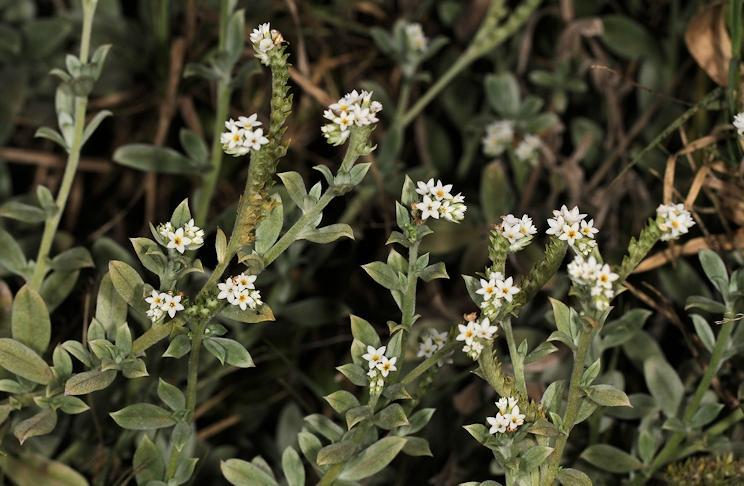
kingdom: Plantae
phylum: Tracheophyta
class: Magnoliopsida
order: Boraginales
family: Heliotropiaceae
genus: Euploca
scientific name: Euploca ovalifolia
